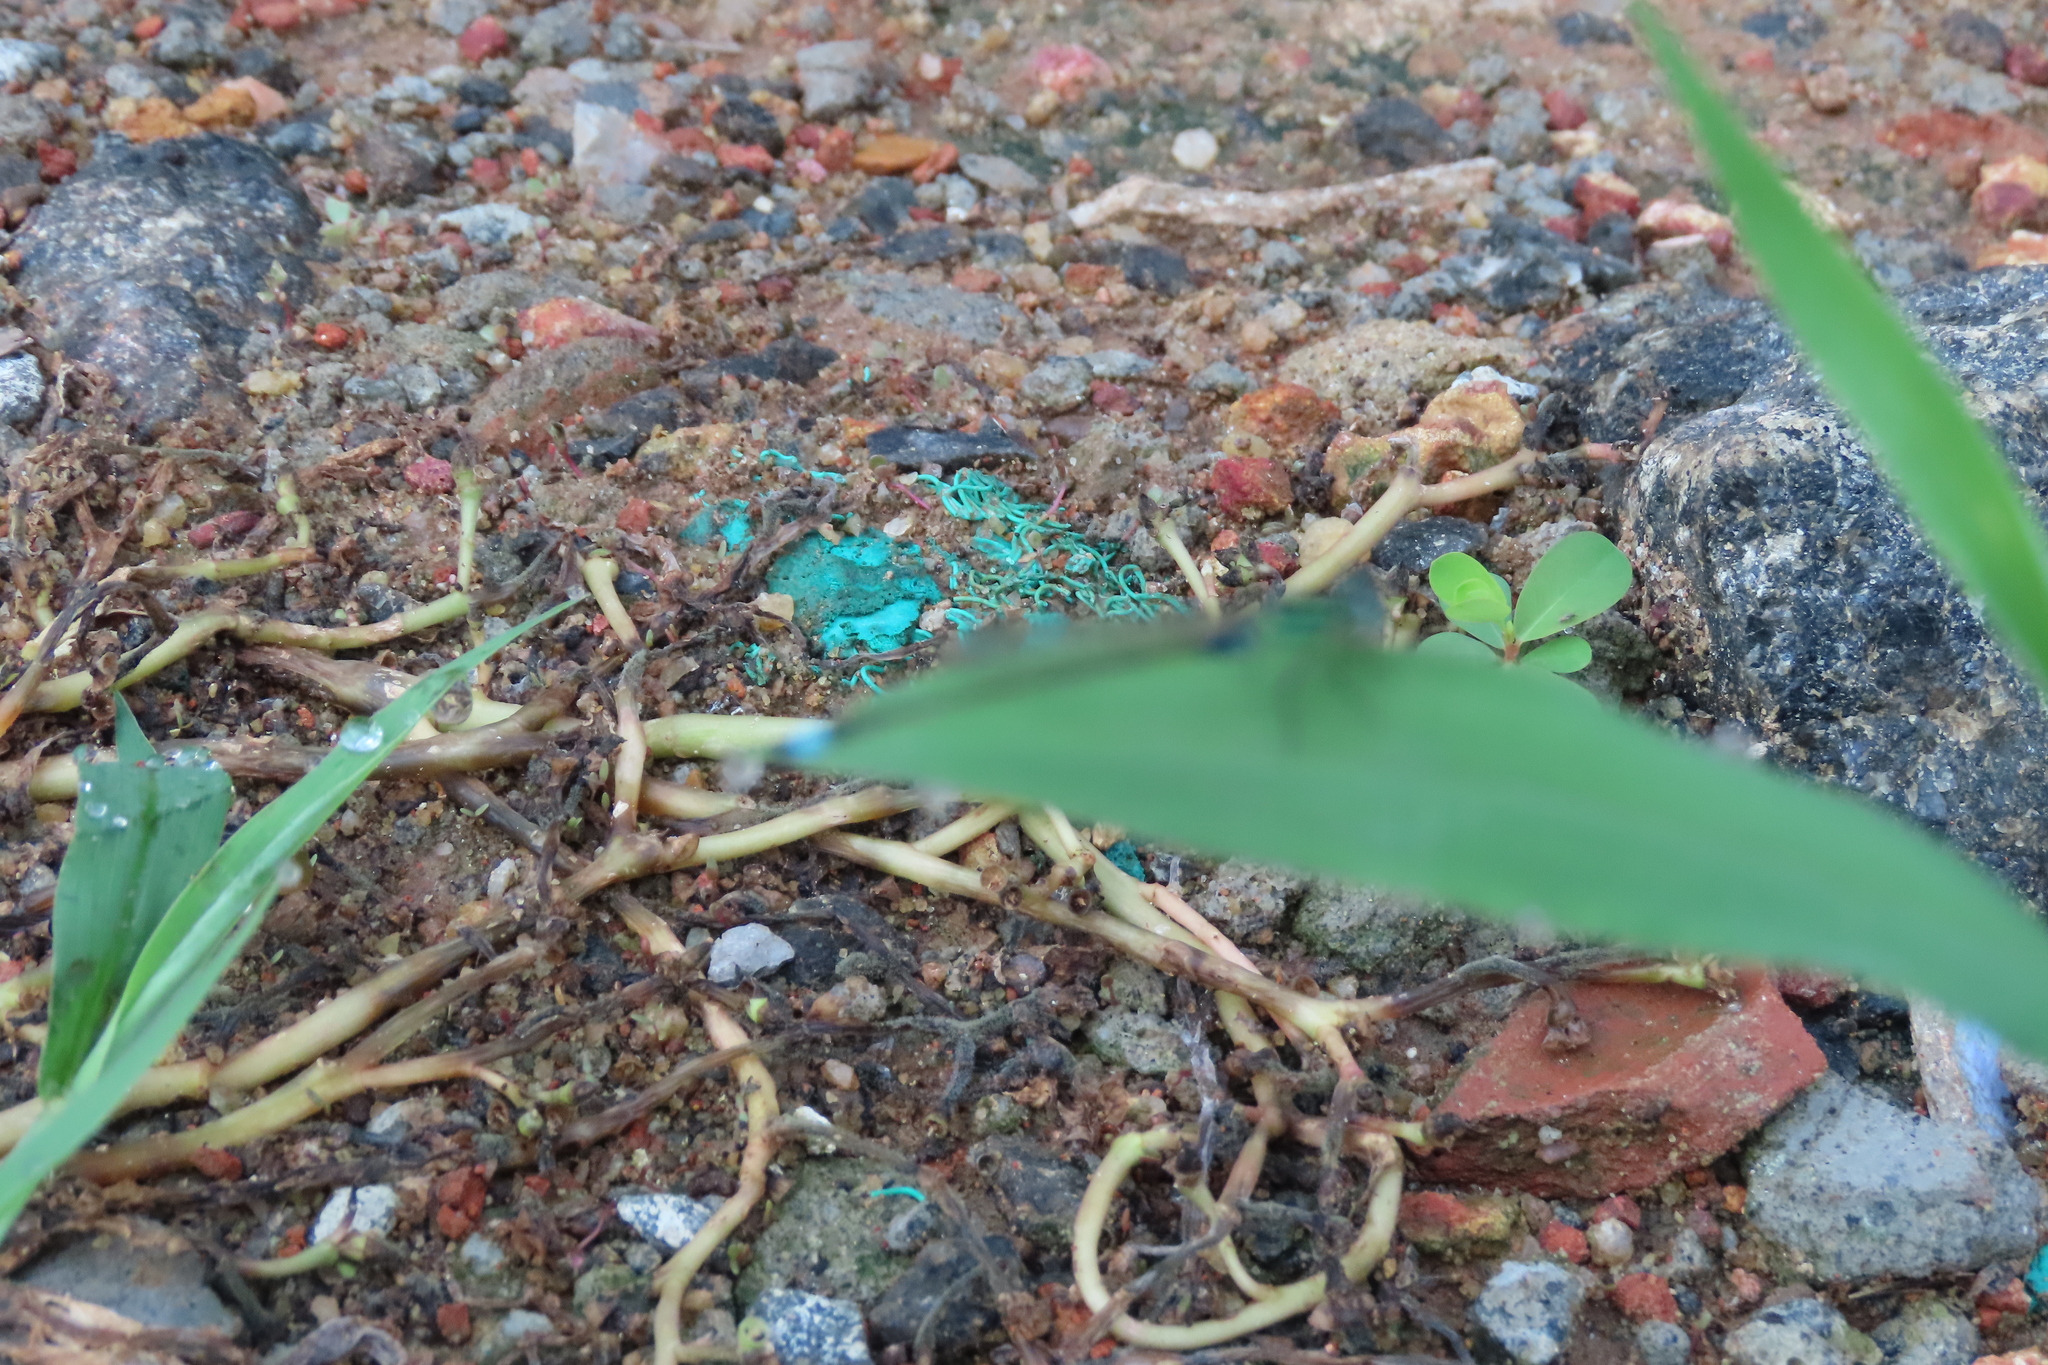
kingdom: Animalia
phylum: Arthropoda
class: Insecta
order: Odonata
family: Coenagrionidae
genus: Ischnura
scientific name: Ischnura senegalensis
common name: Tropical bluetail
